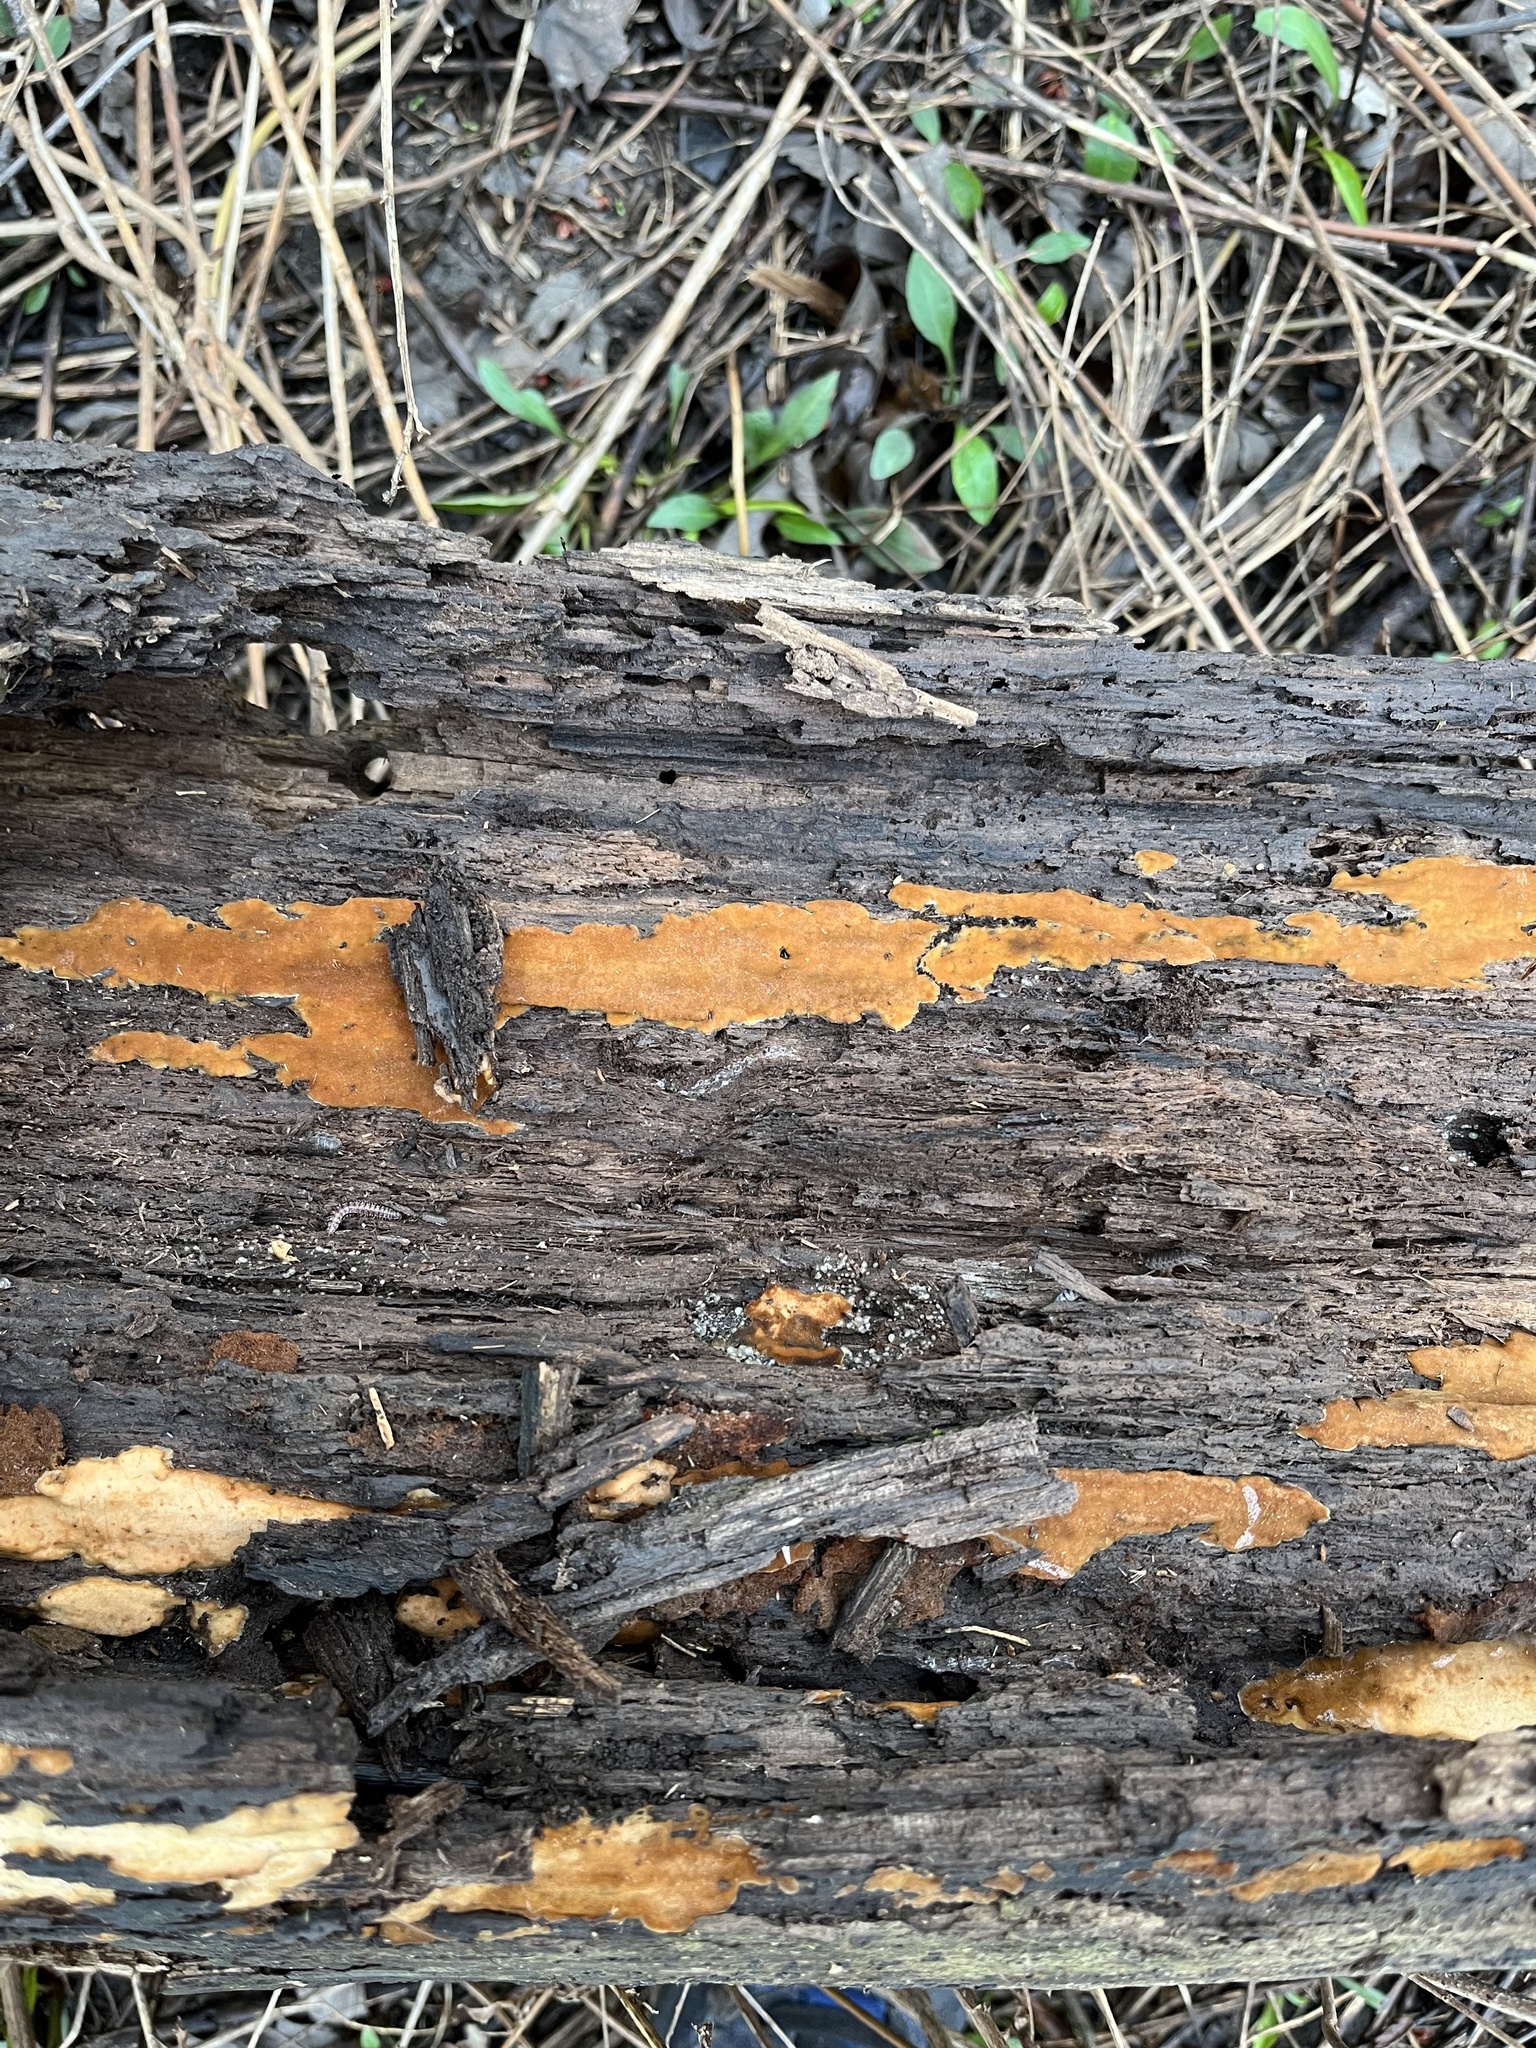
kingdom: Fungi
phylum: Basidiomycota
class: Agaricomycetes
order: Cantharellales
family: Botryobasidiaceae
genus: Botryobasidium
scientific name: Botryobasidium simile
